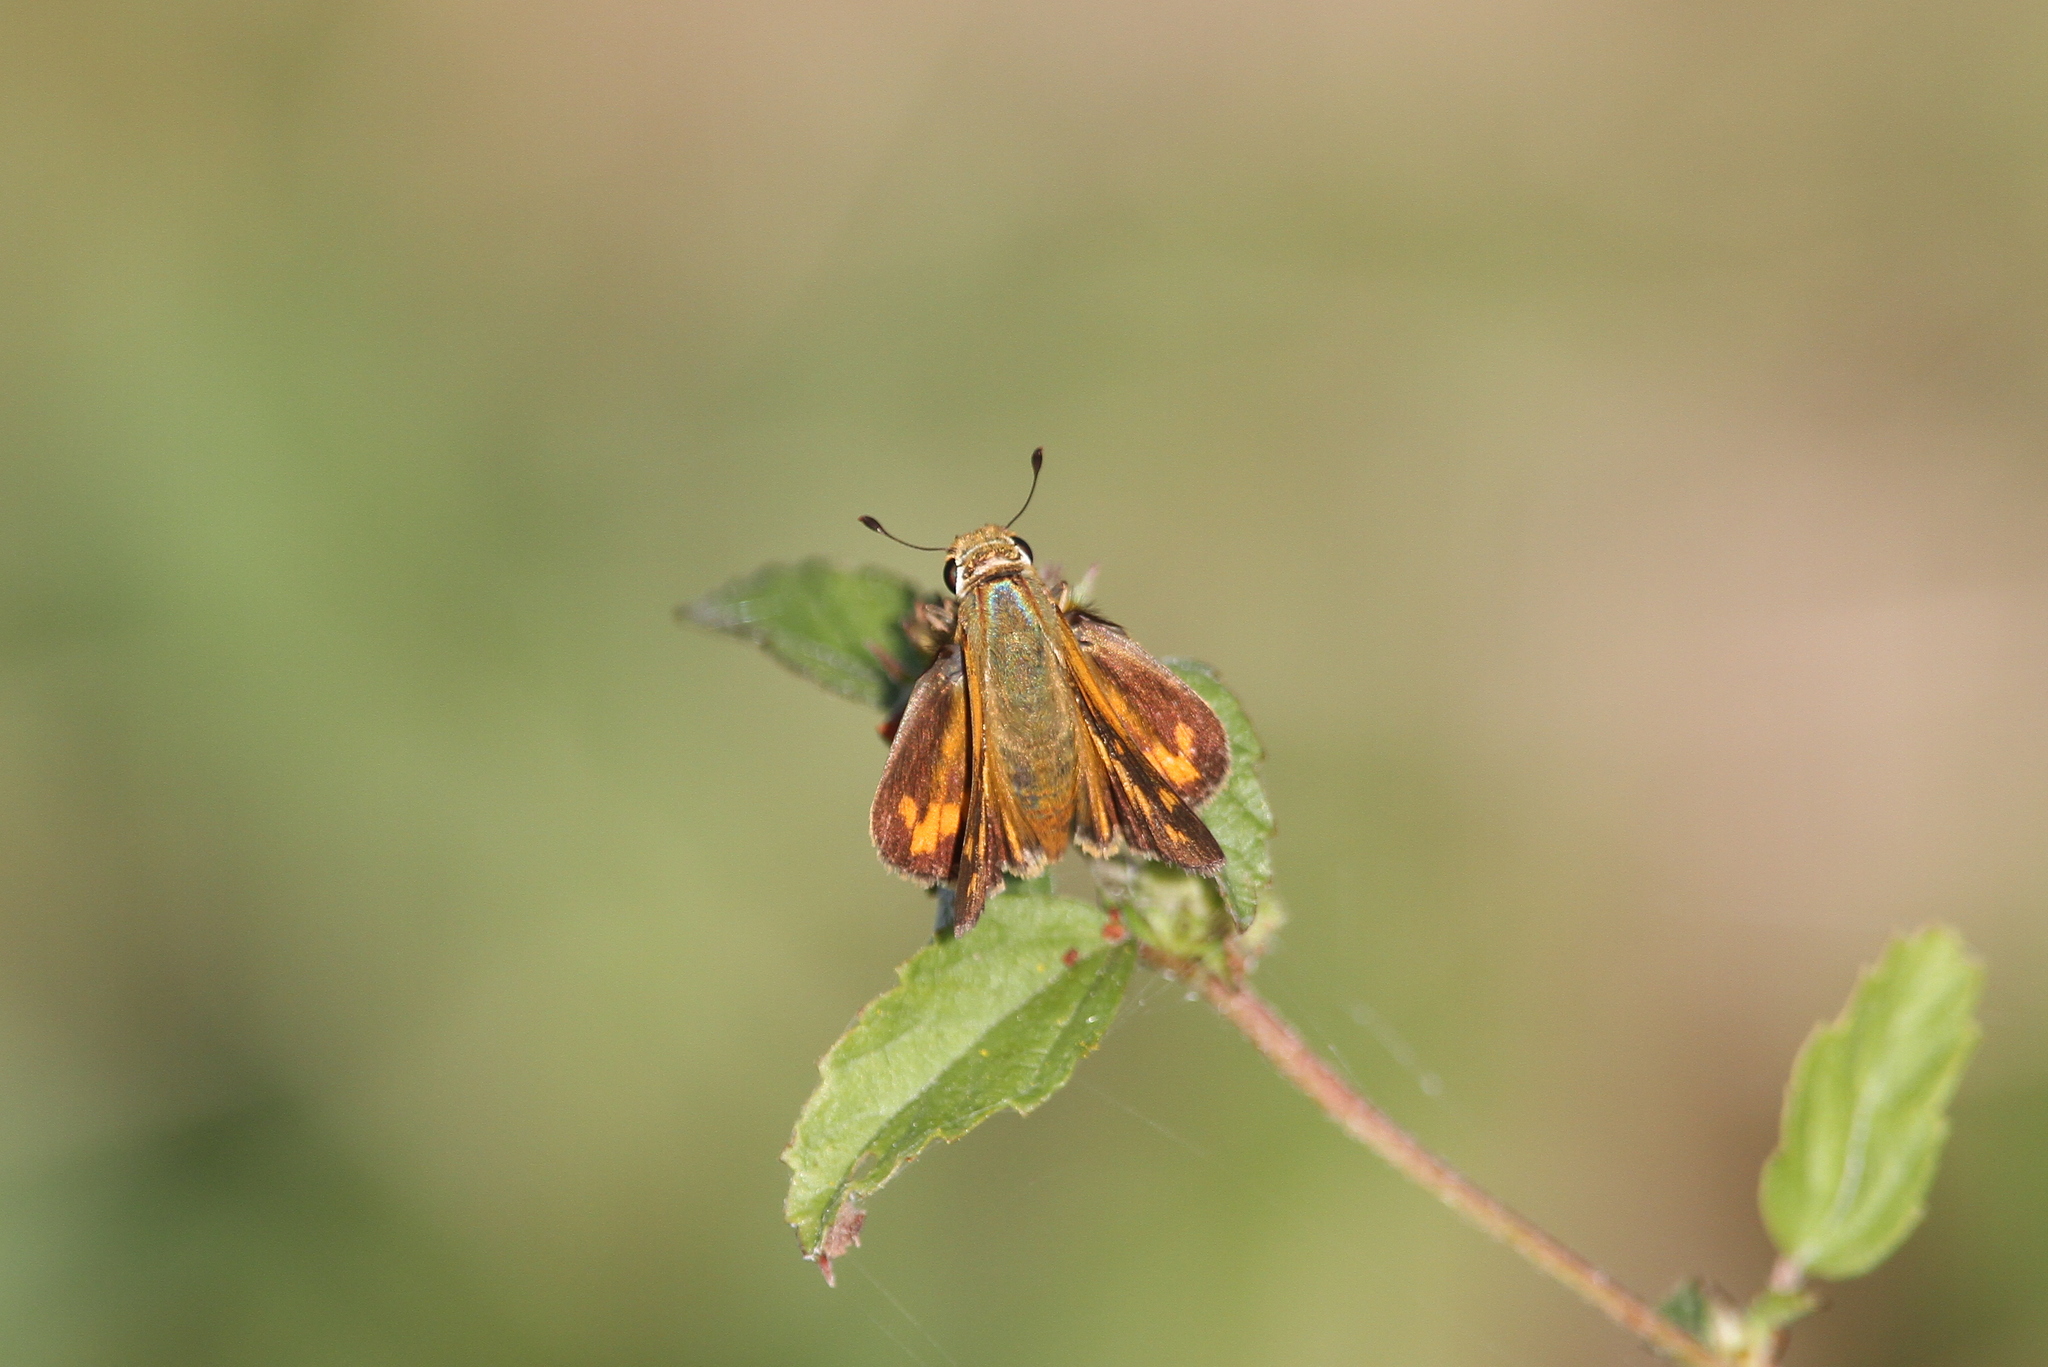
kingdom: Animalia
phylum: Arthropoda
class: Insecta
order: Lepidoptera
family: Hesperiidae
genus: Hylephila
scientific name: Hylephila phyleus
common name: Fiery skipper
